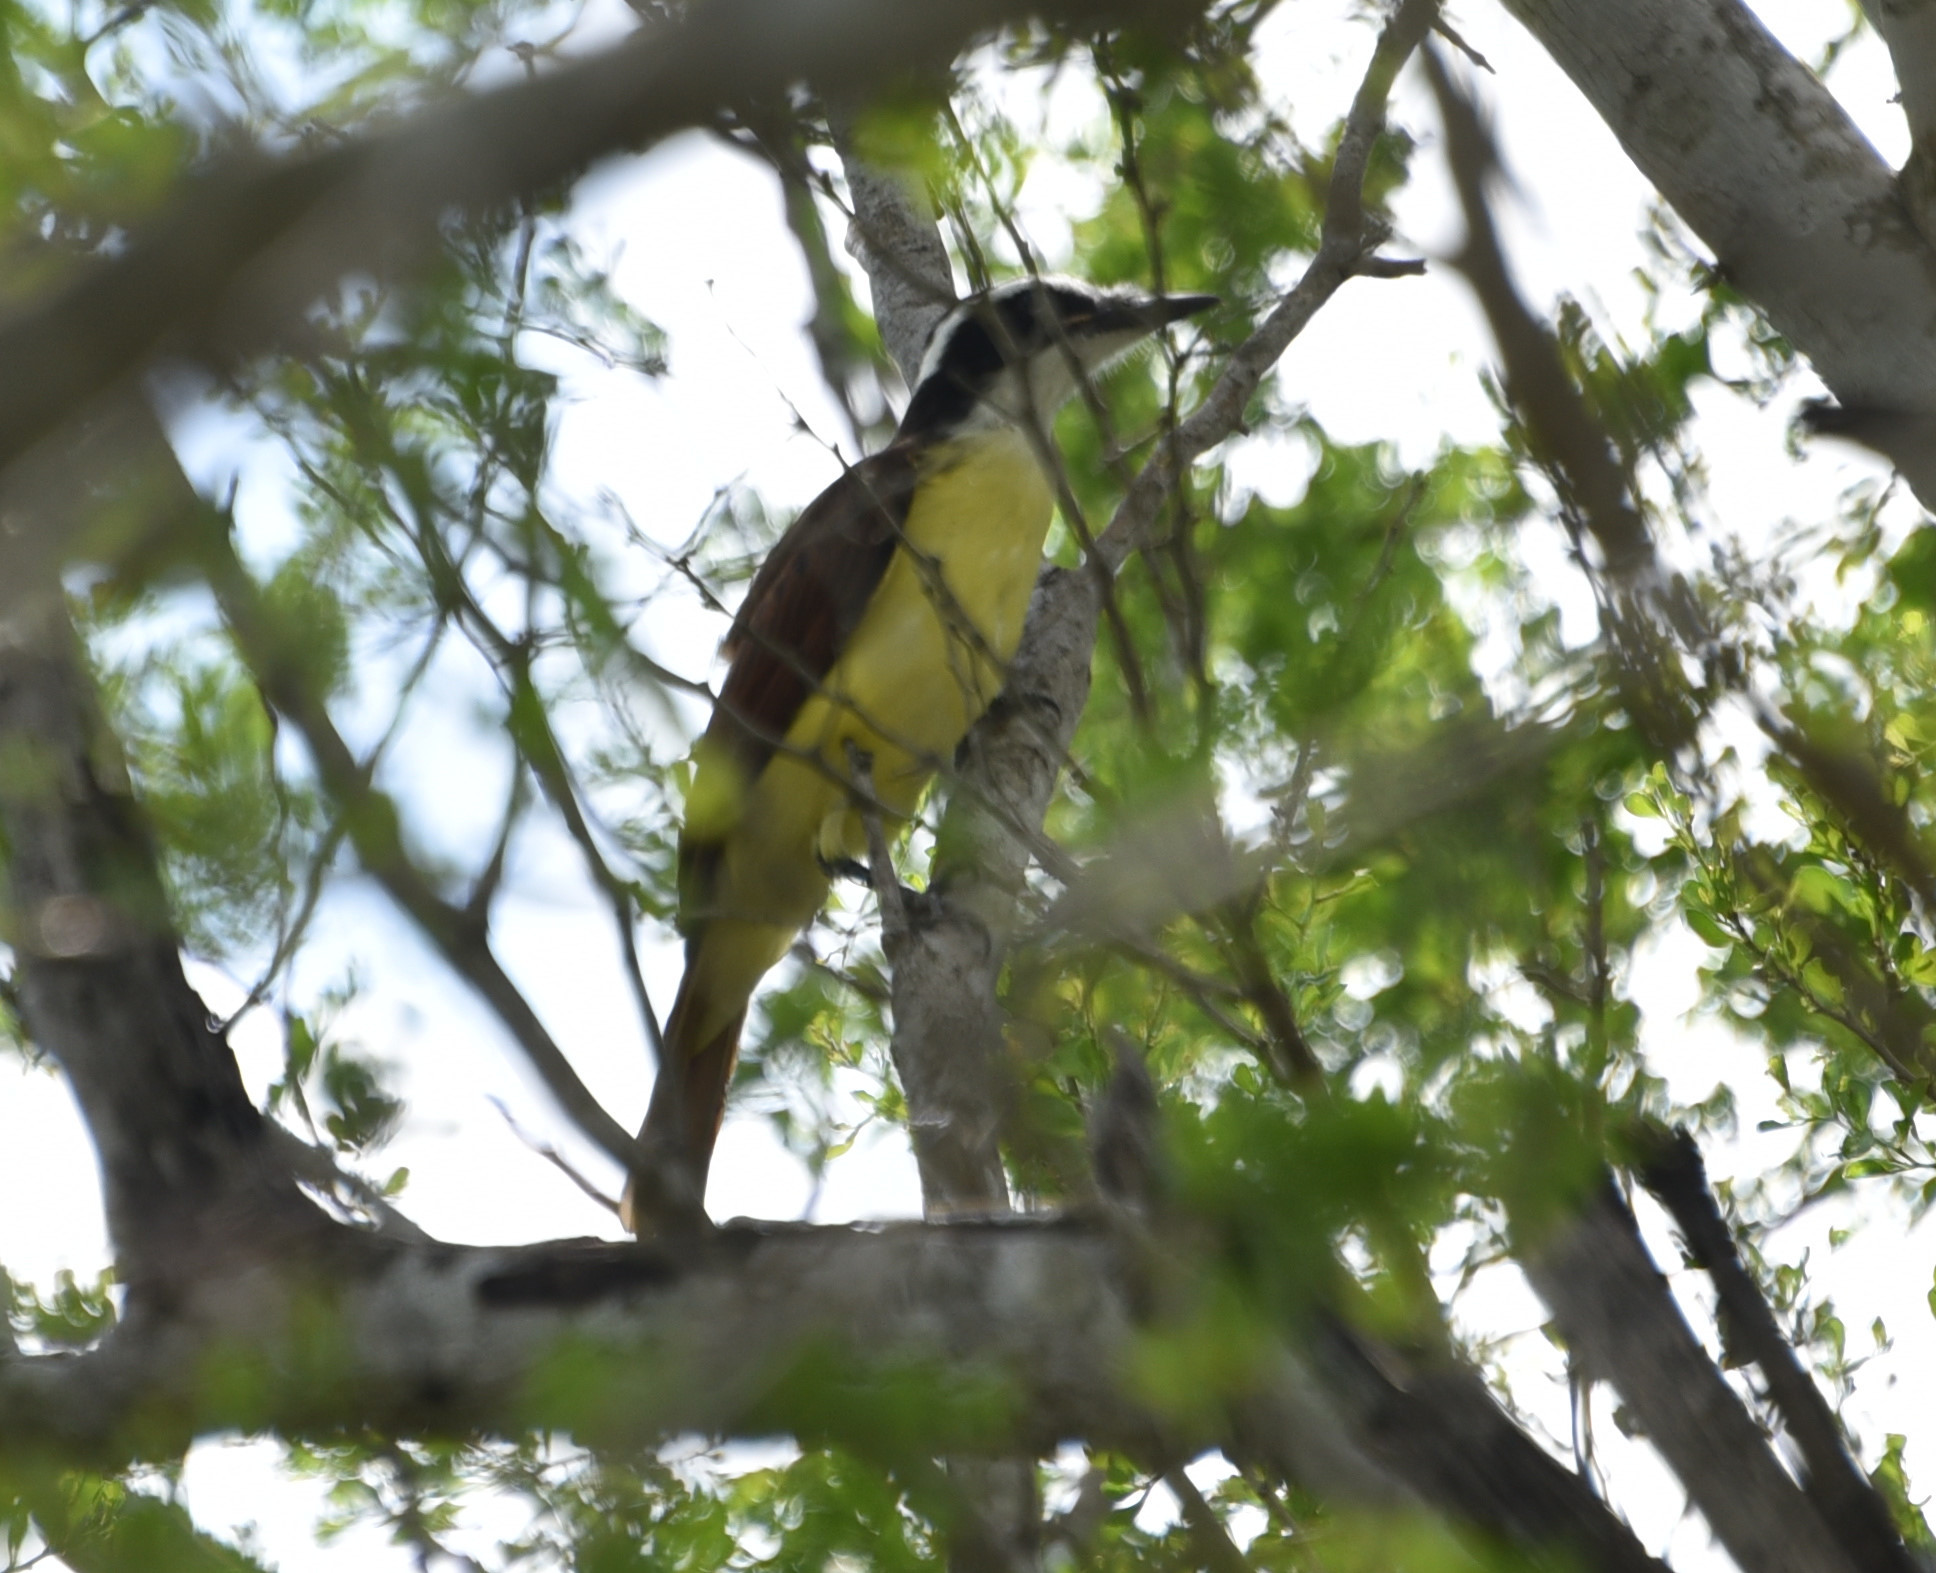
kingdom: Animalia
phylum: Chordata
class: Aves
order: Passeriformes
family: Tyrannidae
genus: Pitangus
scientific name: Pitangus sulphuratus
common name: Great kiskadee
